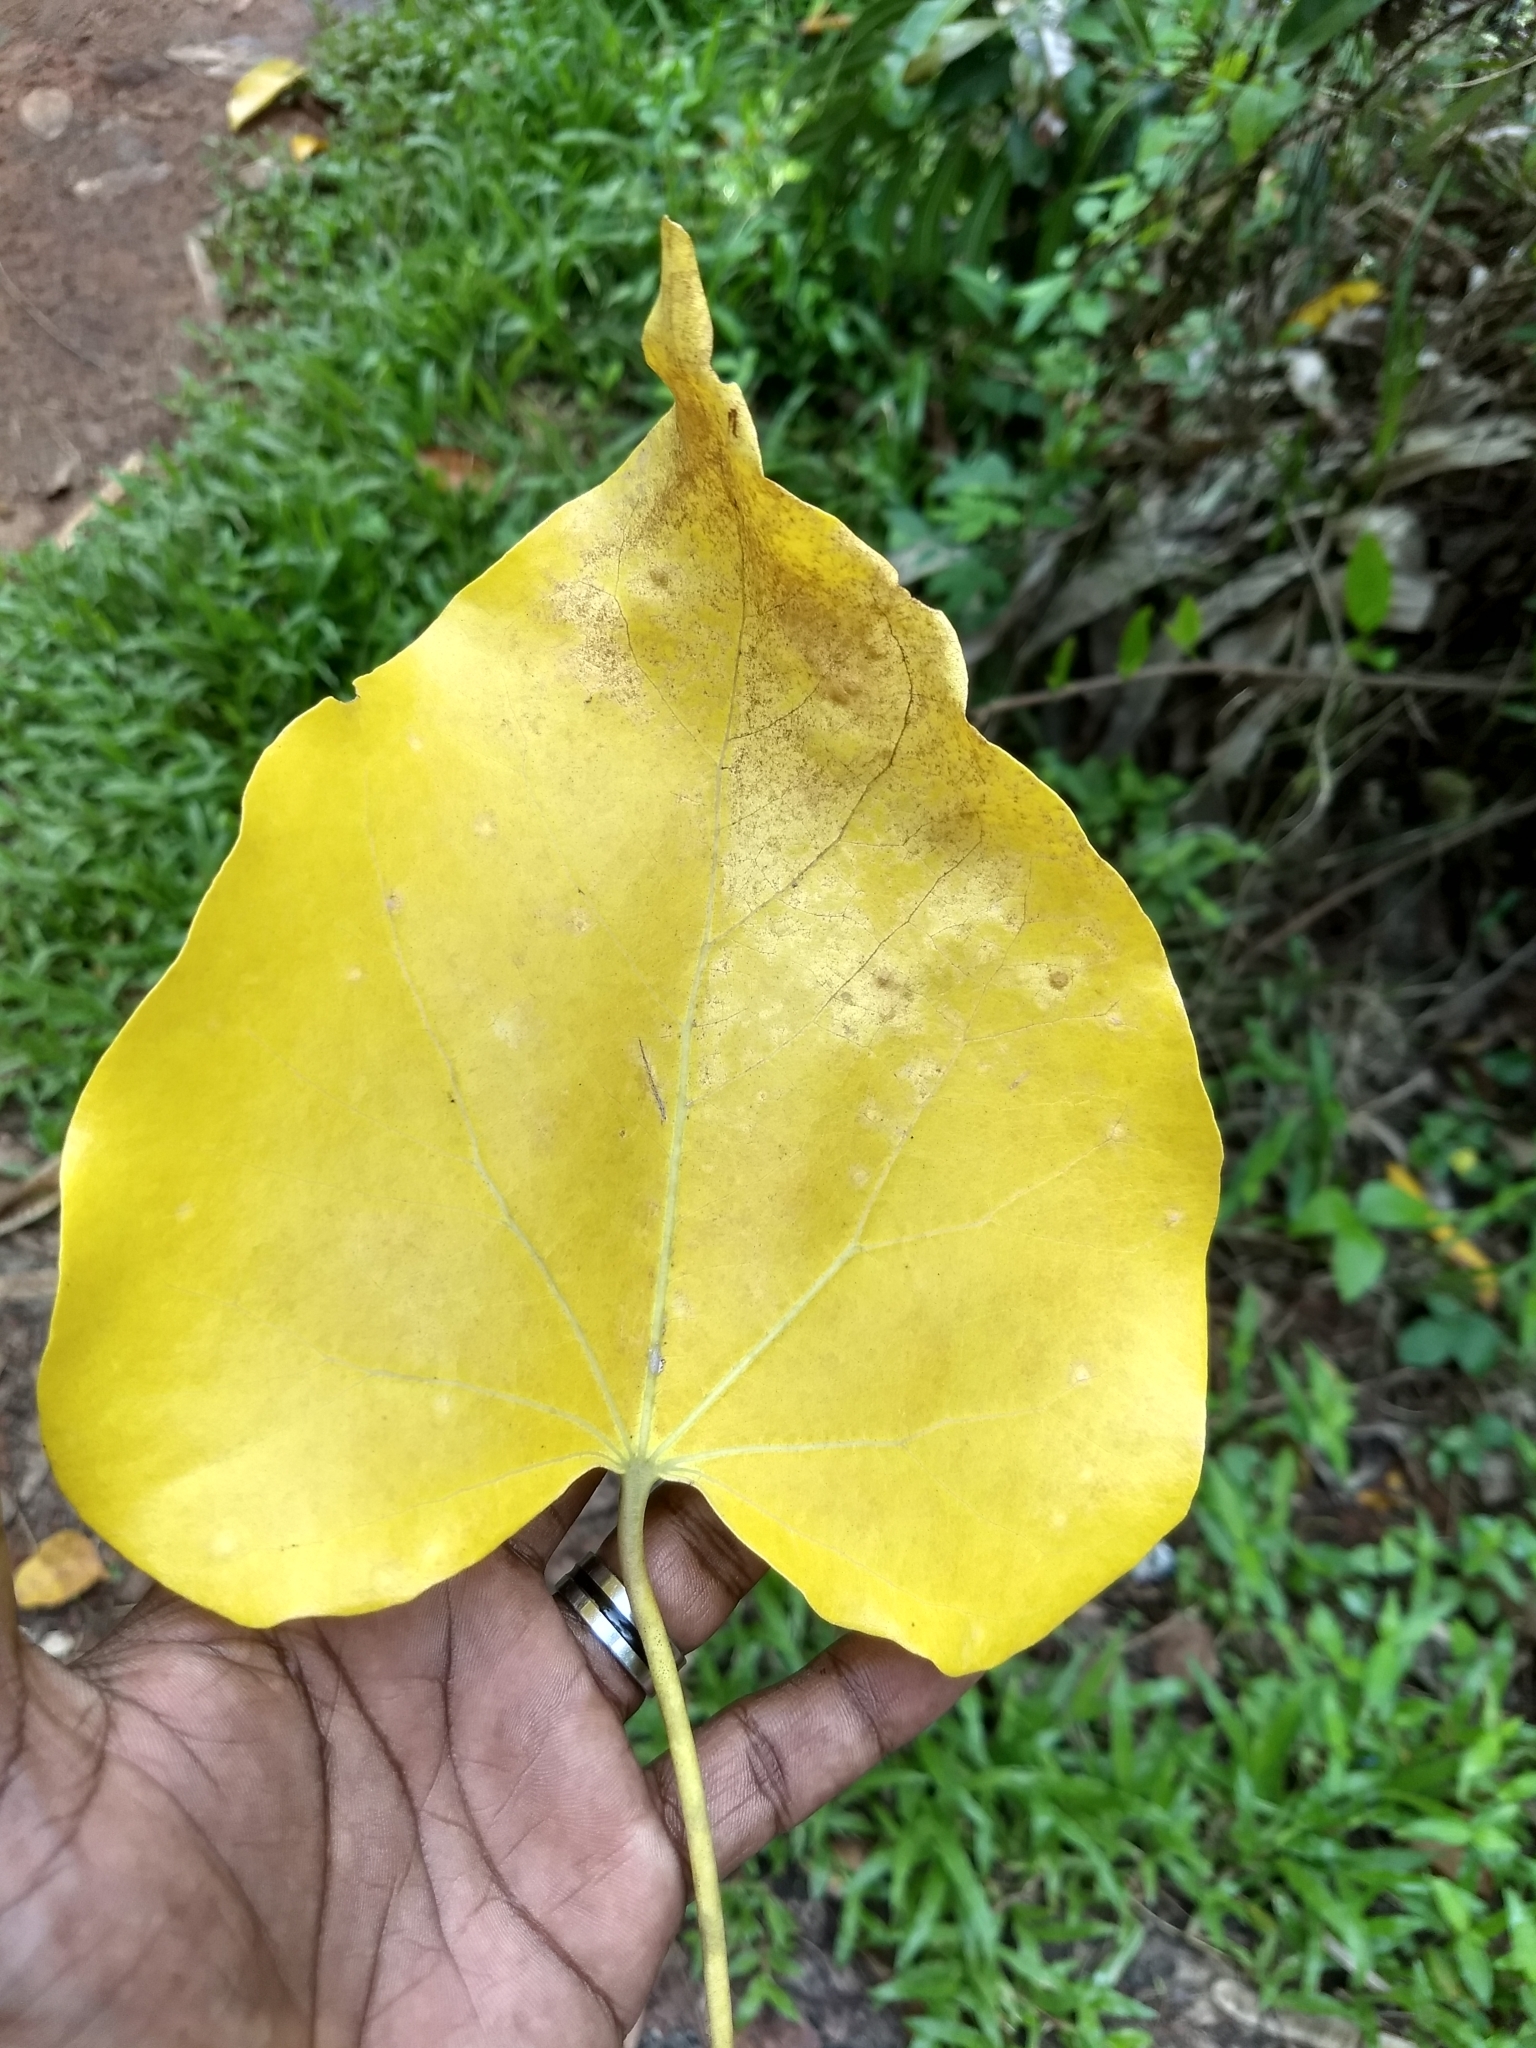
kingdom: Plantae
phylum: Tracheophyta
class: Magnoliopsida
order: Malvales
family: Malvaceae
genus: Thespesia
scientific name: Thespesia populnea
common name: Seaside mahoe
